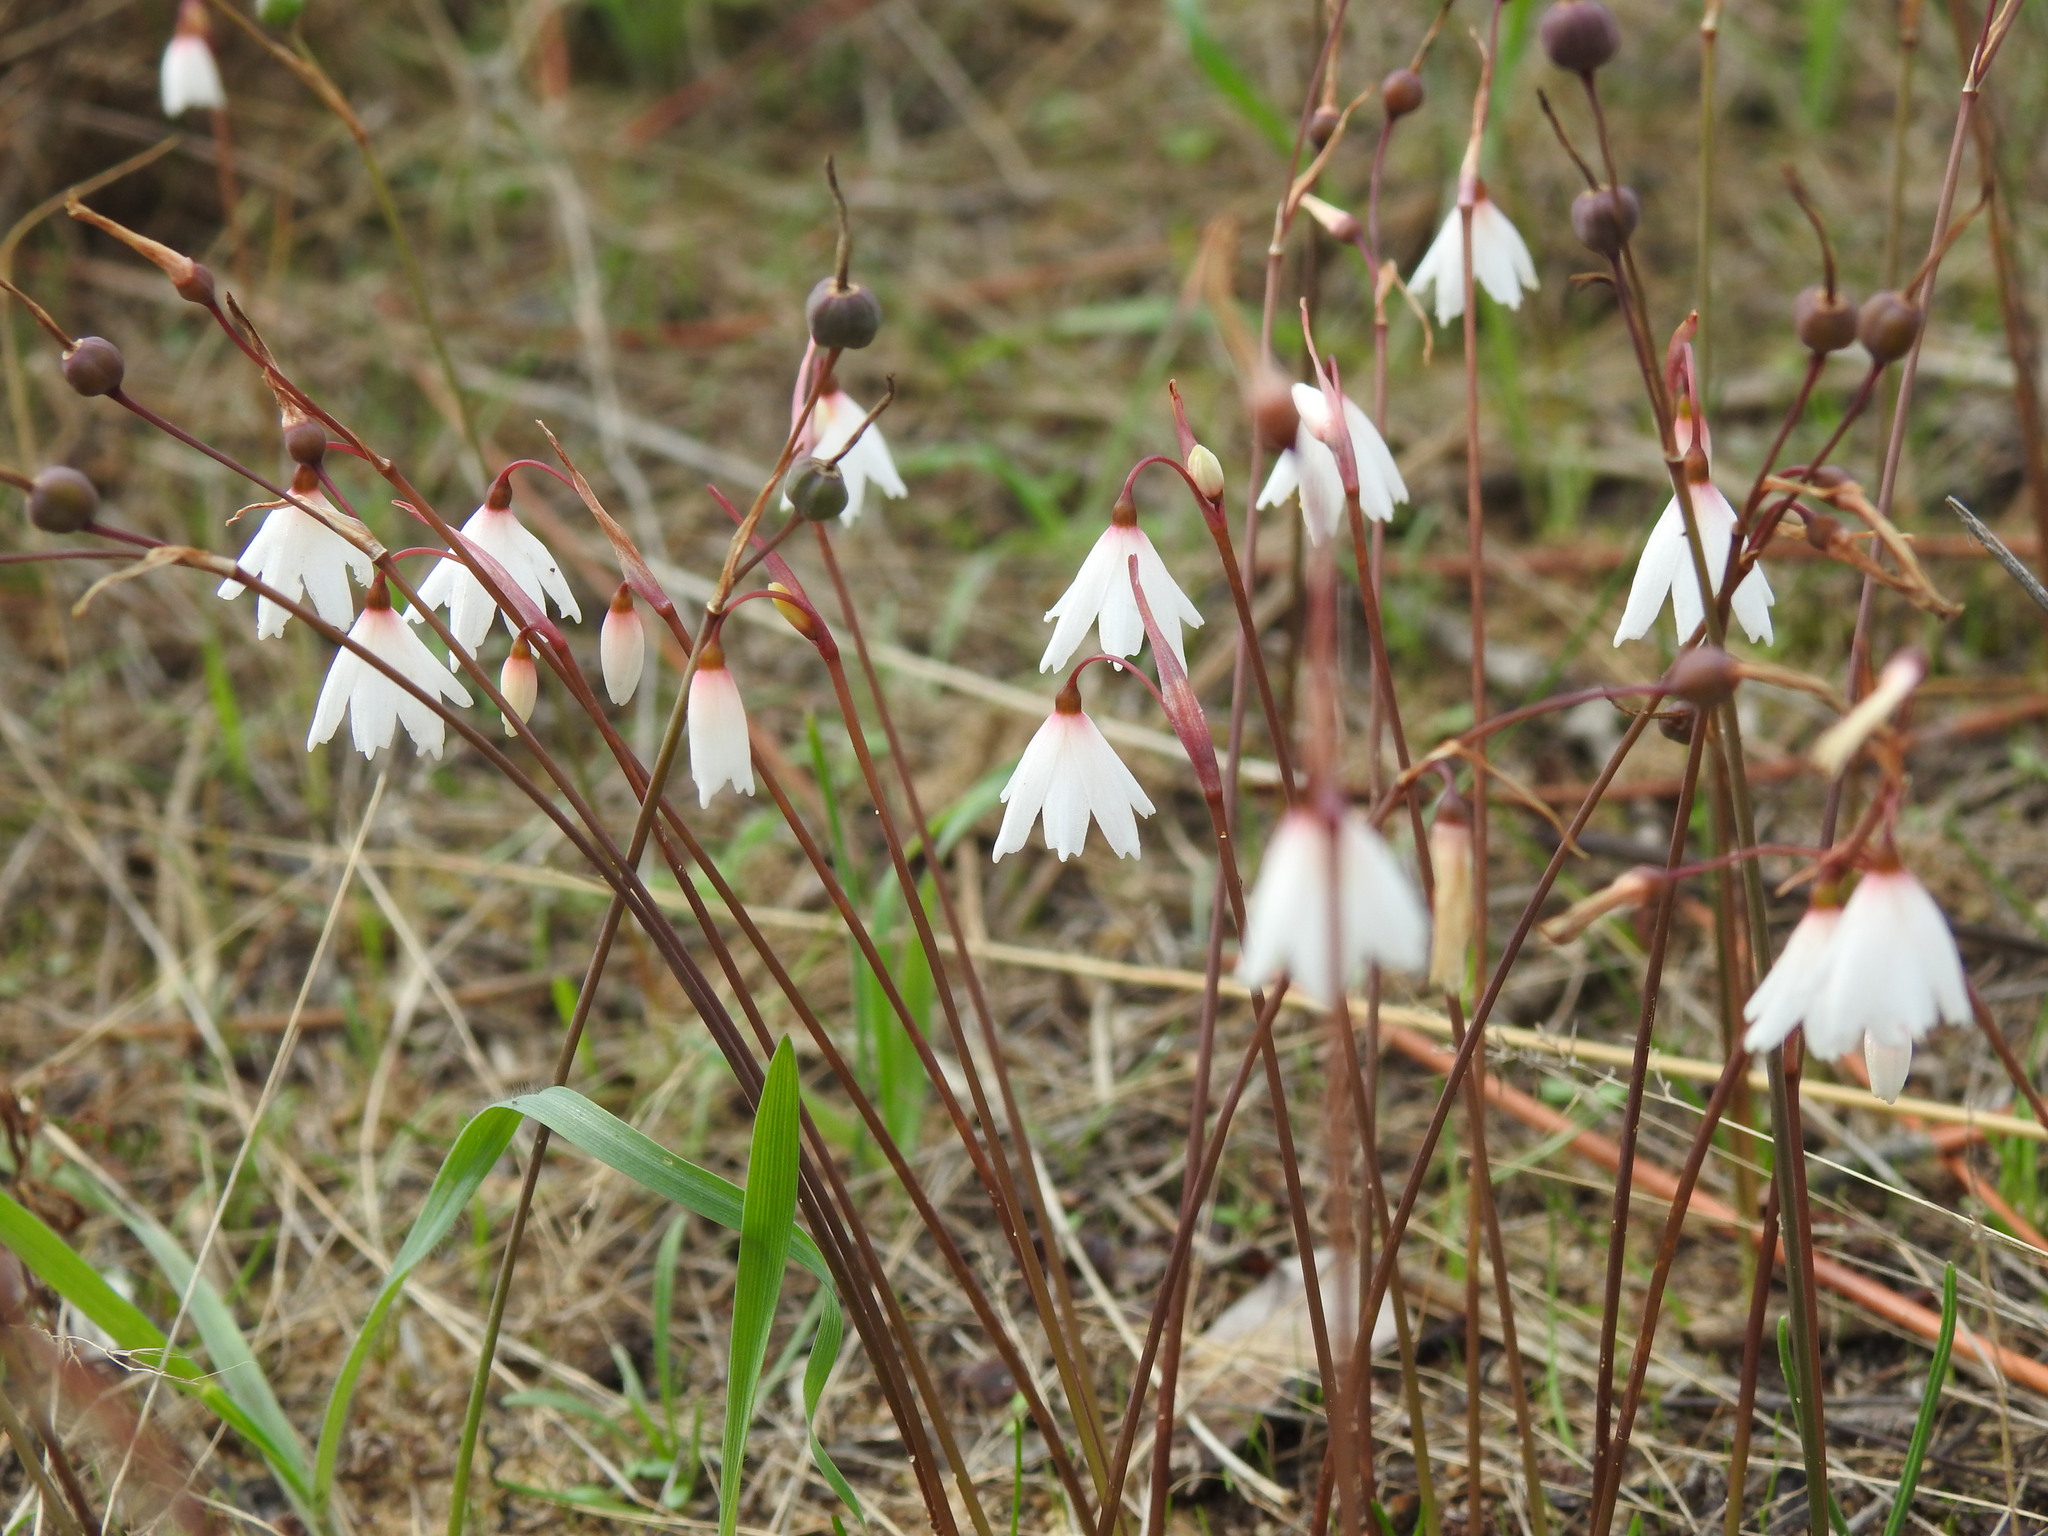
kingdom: Plantae
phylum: Tracheophyta
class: Liliopsida
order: Asparagales
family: Amaryllidaceae
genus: Acis
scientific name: Acis autumnalis
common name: Autumn snowflake
